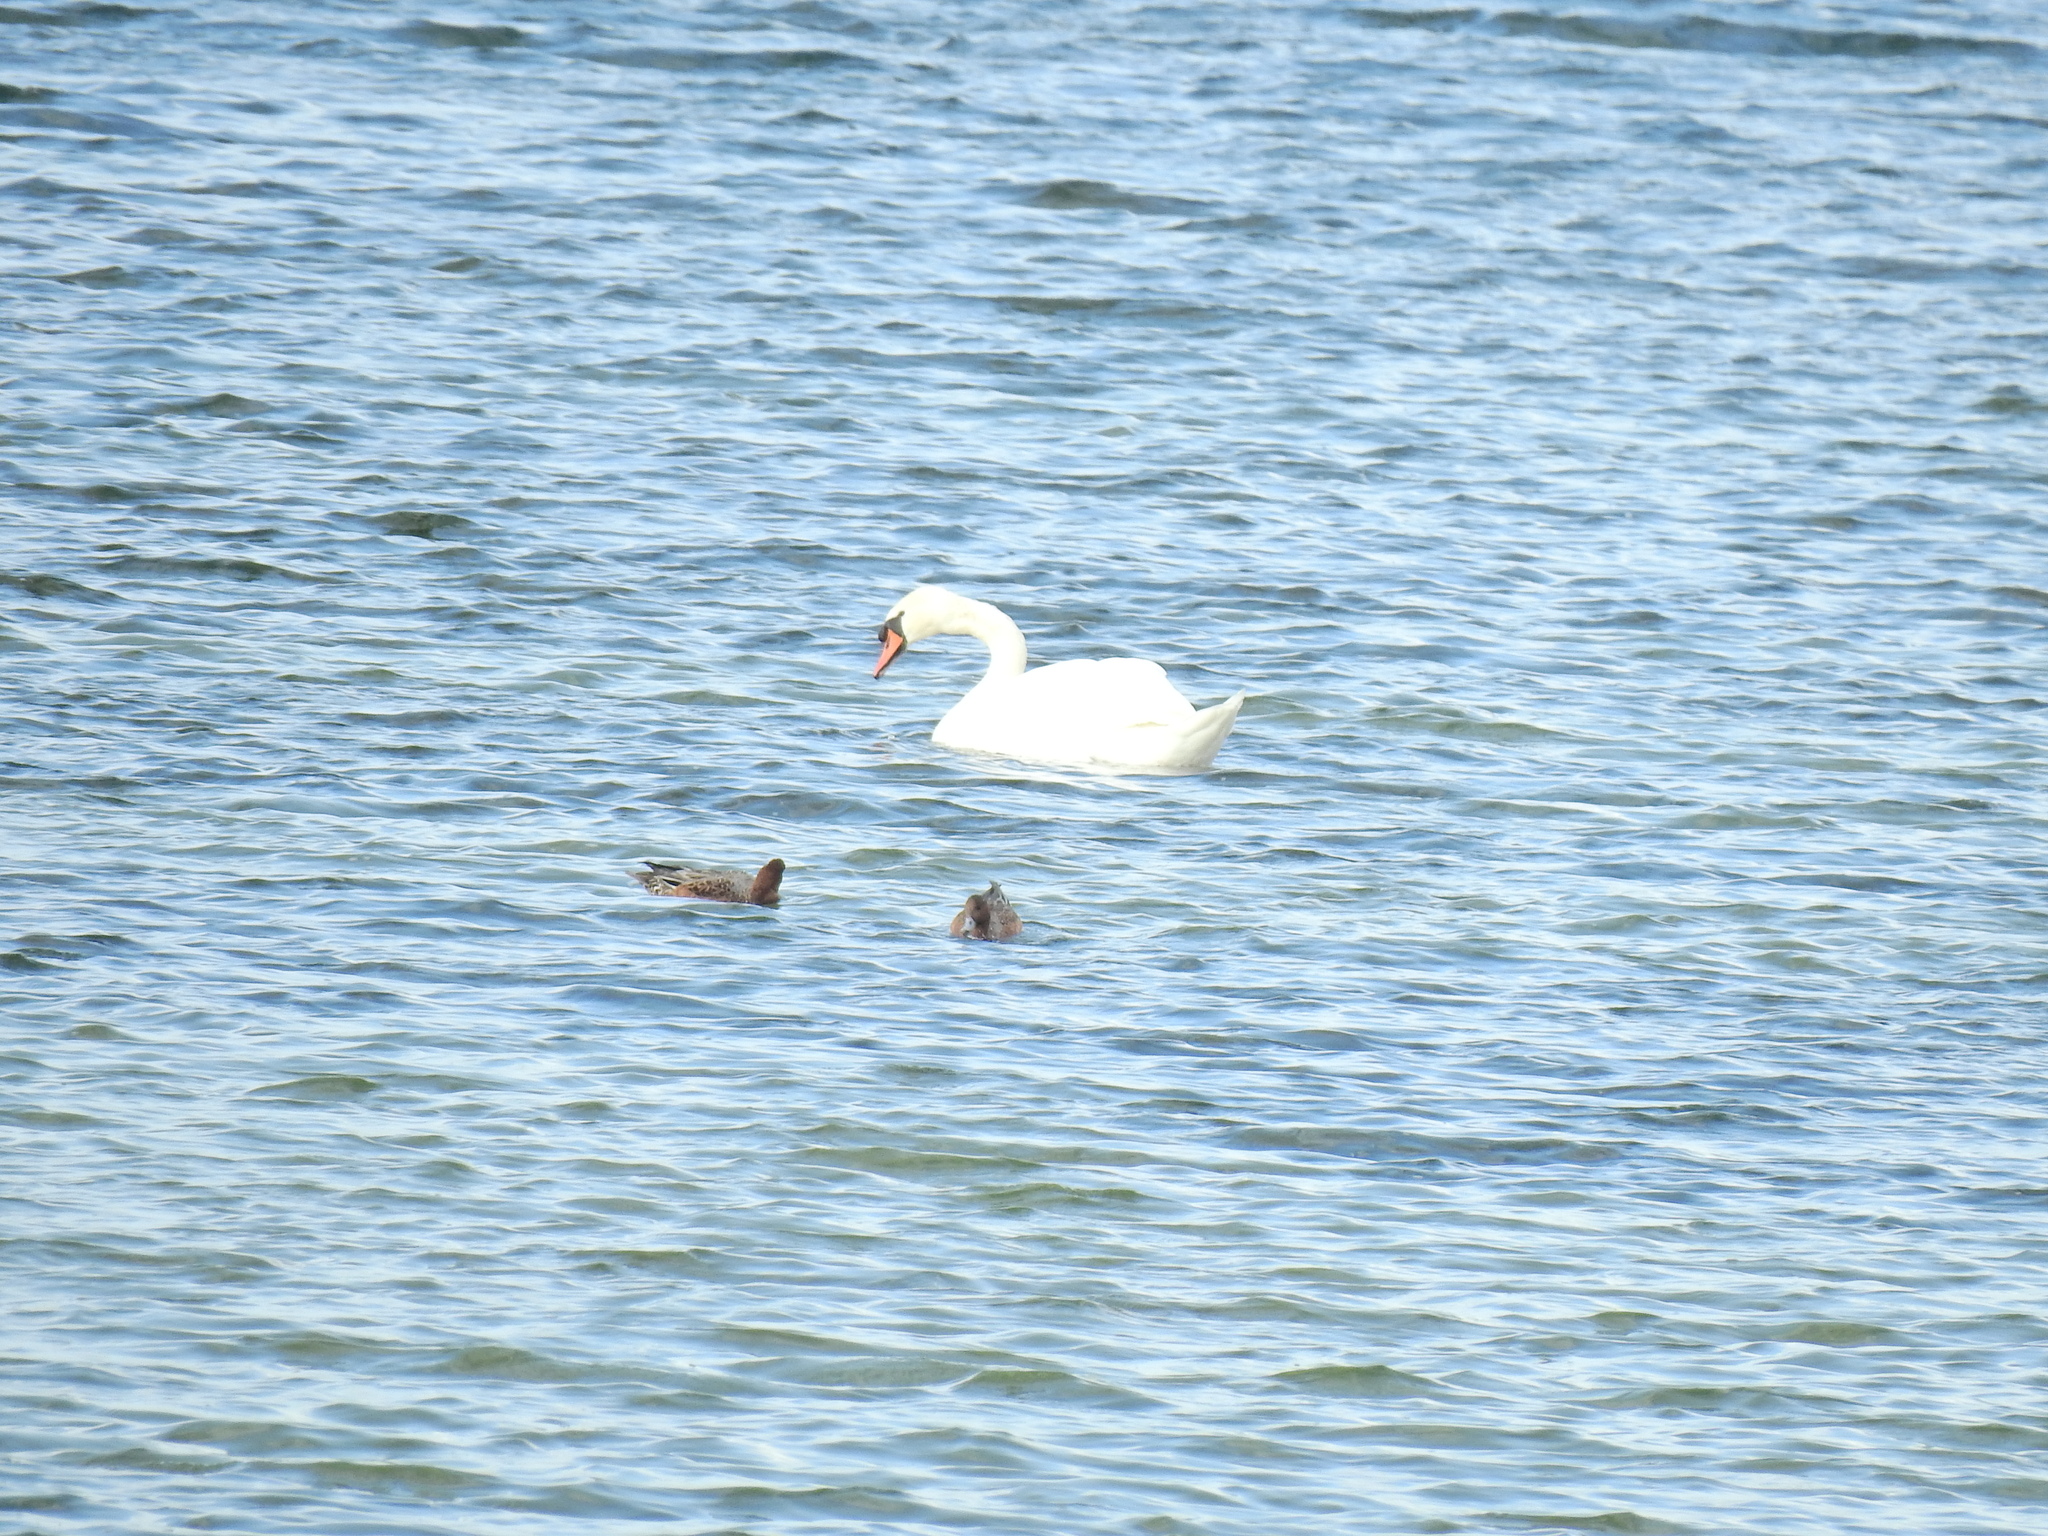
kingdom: Animalia
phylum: Chordata
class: Aves
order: Anseriformes
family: Anatidae
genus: Cygnus
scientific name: Cygnus olor
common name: Mute swan
